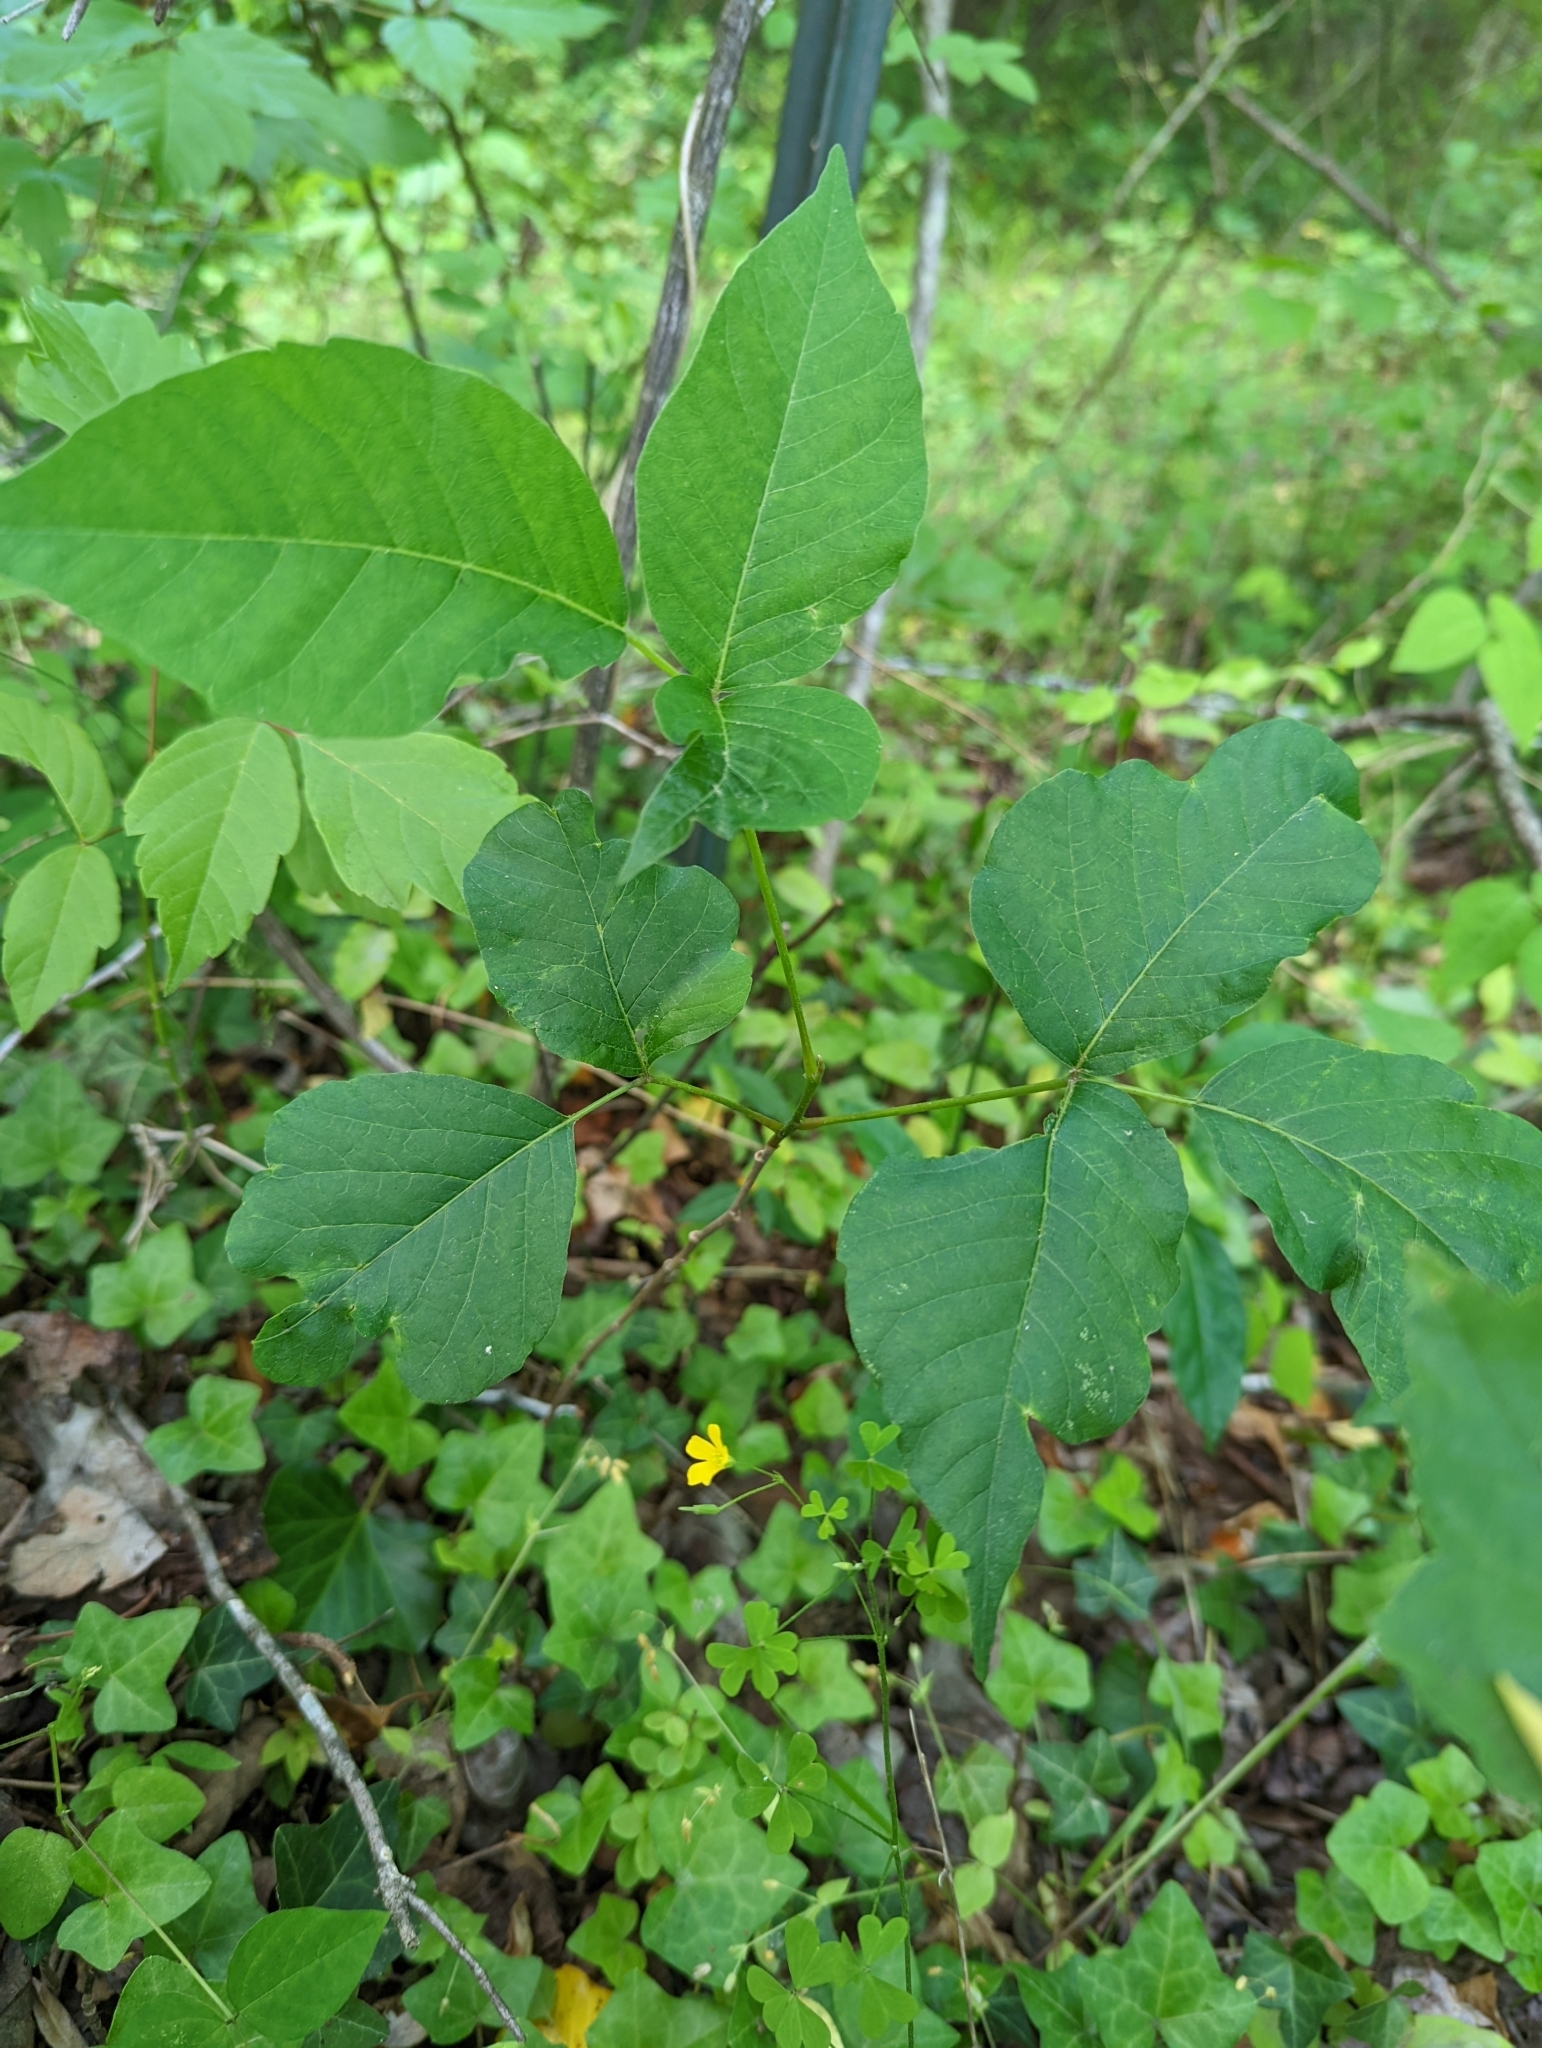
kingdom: Plantae
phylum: Tracheophyta
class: Magnoliopsida
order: Sapindales
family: Anacardiaceae
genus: Toxicodendron
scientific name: Toxicodendron radicans
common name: Poison ivy
